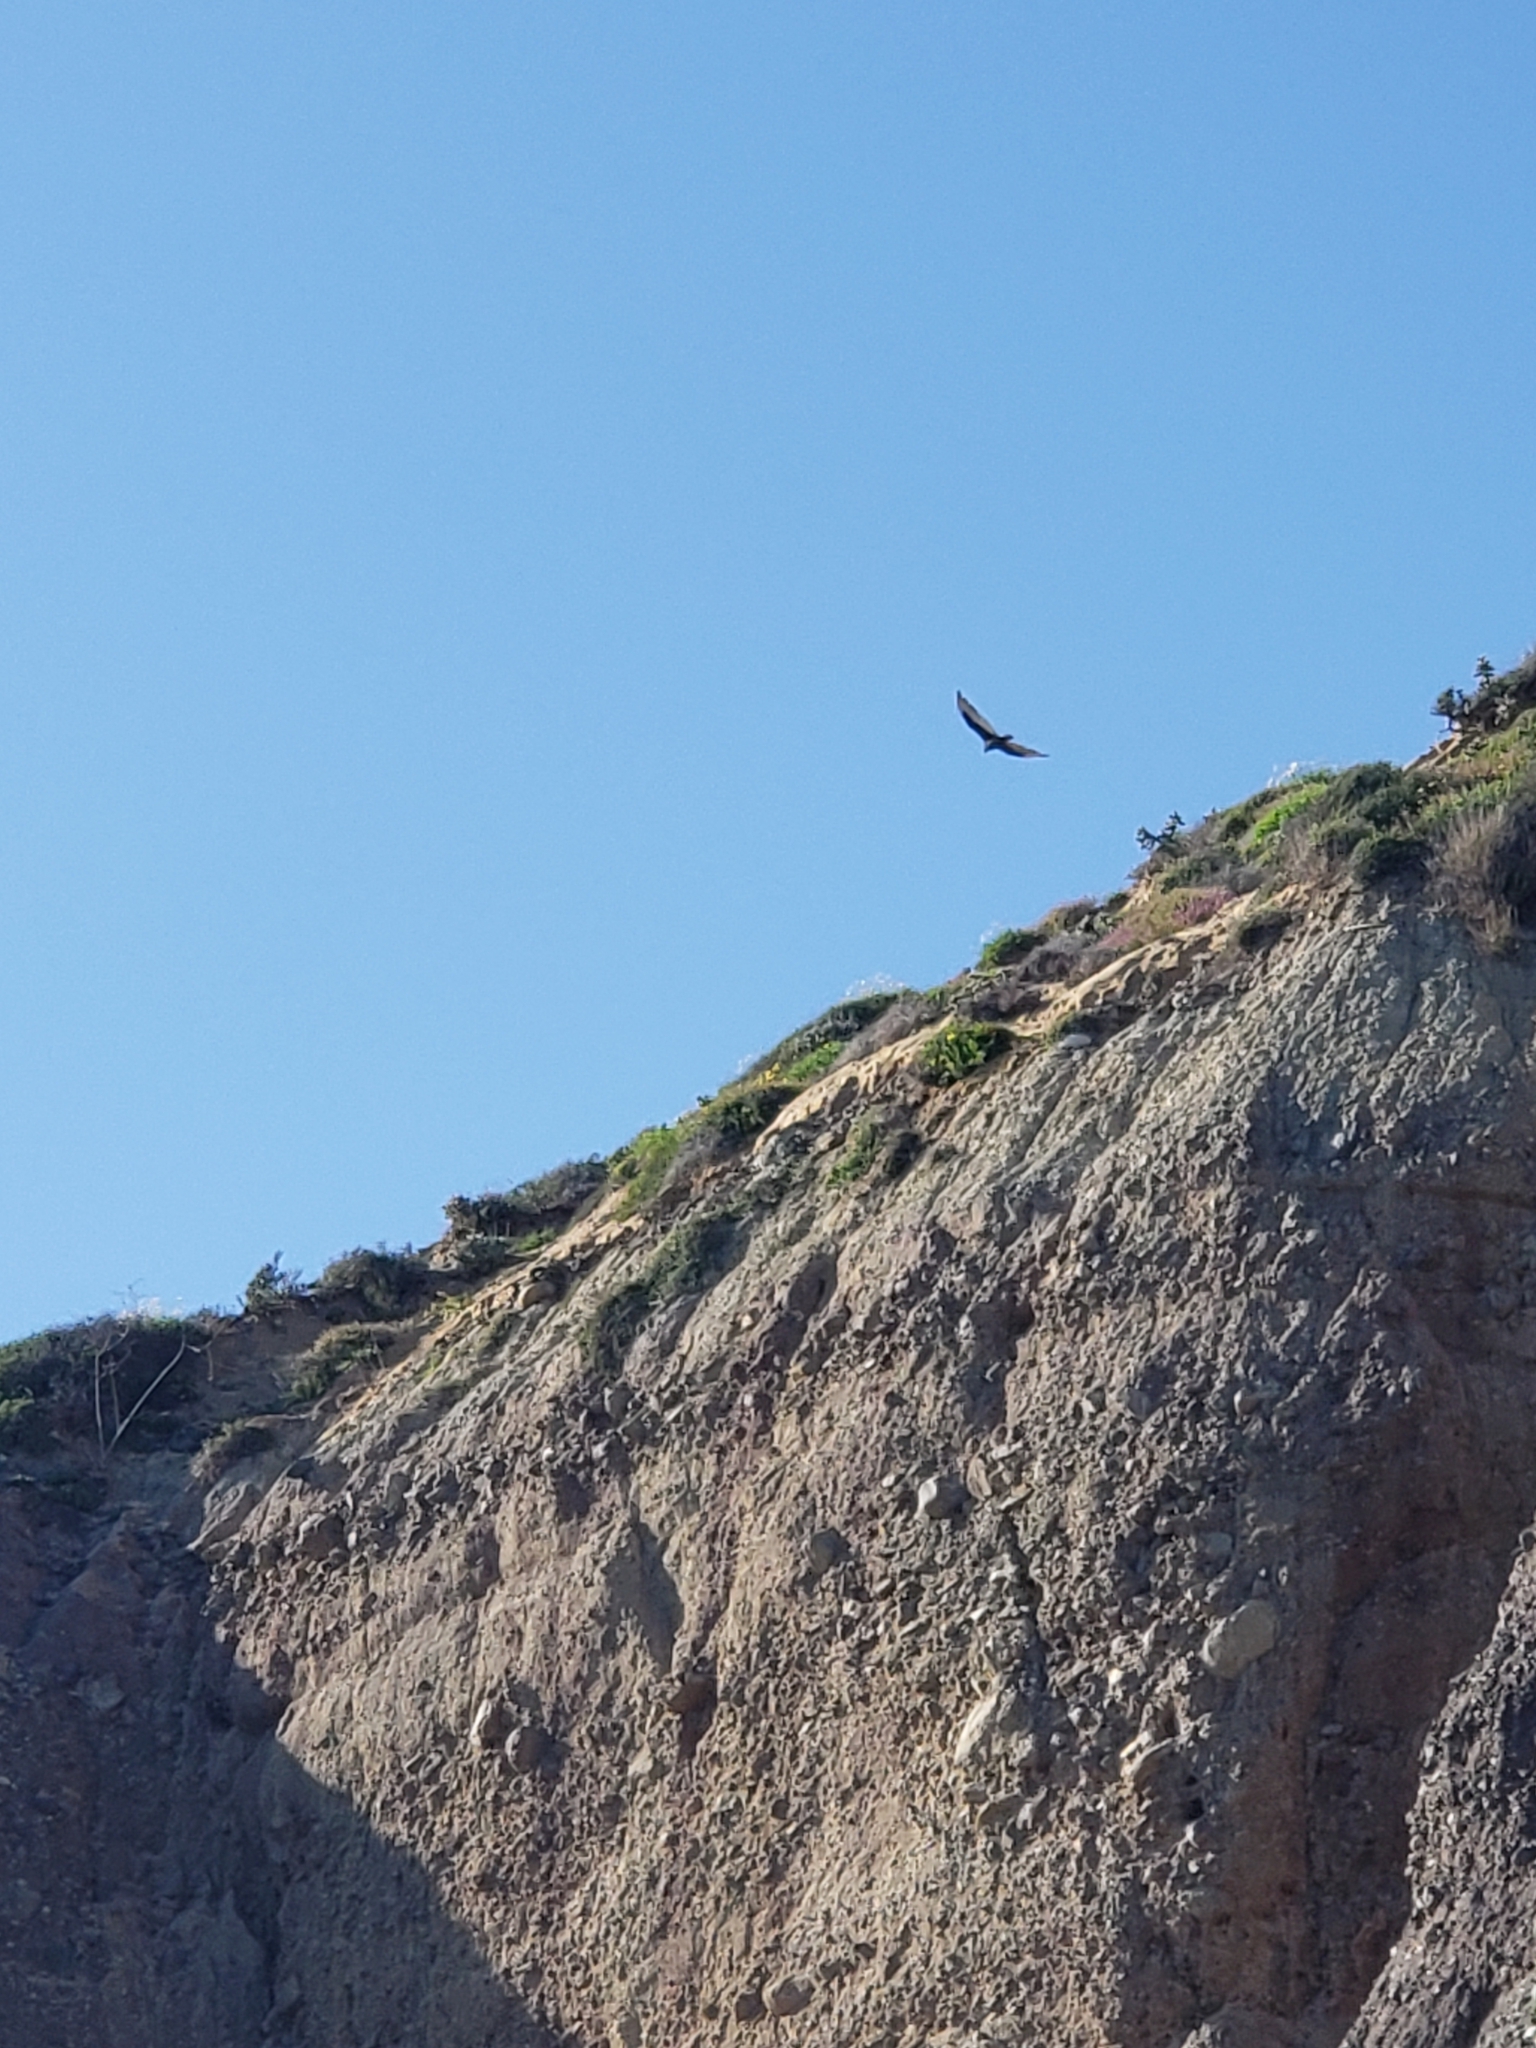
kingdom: Animalia
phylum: Chordata
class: Aves
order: Accipitriformes
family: Cathartidae
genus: Cathartes
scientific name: Cathartes aura
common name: Turkey vulture
